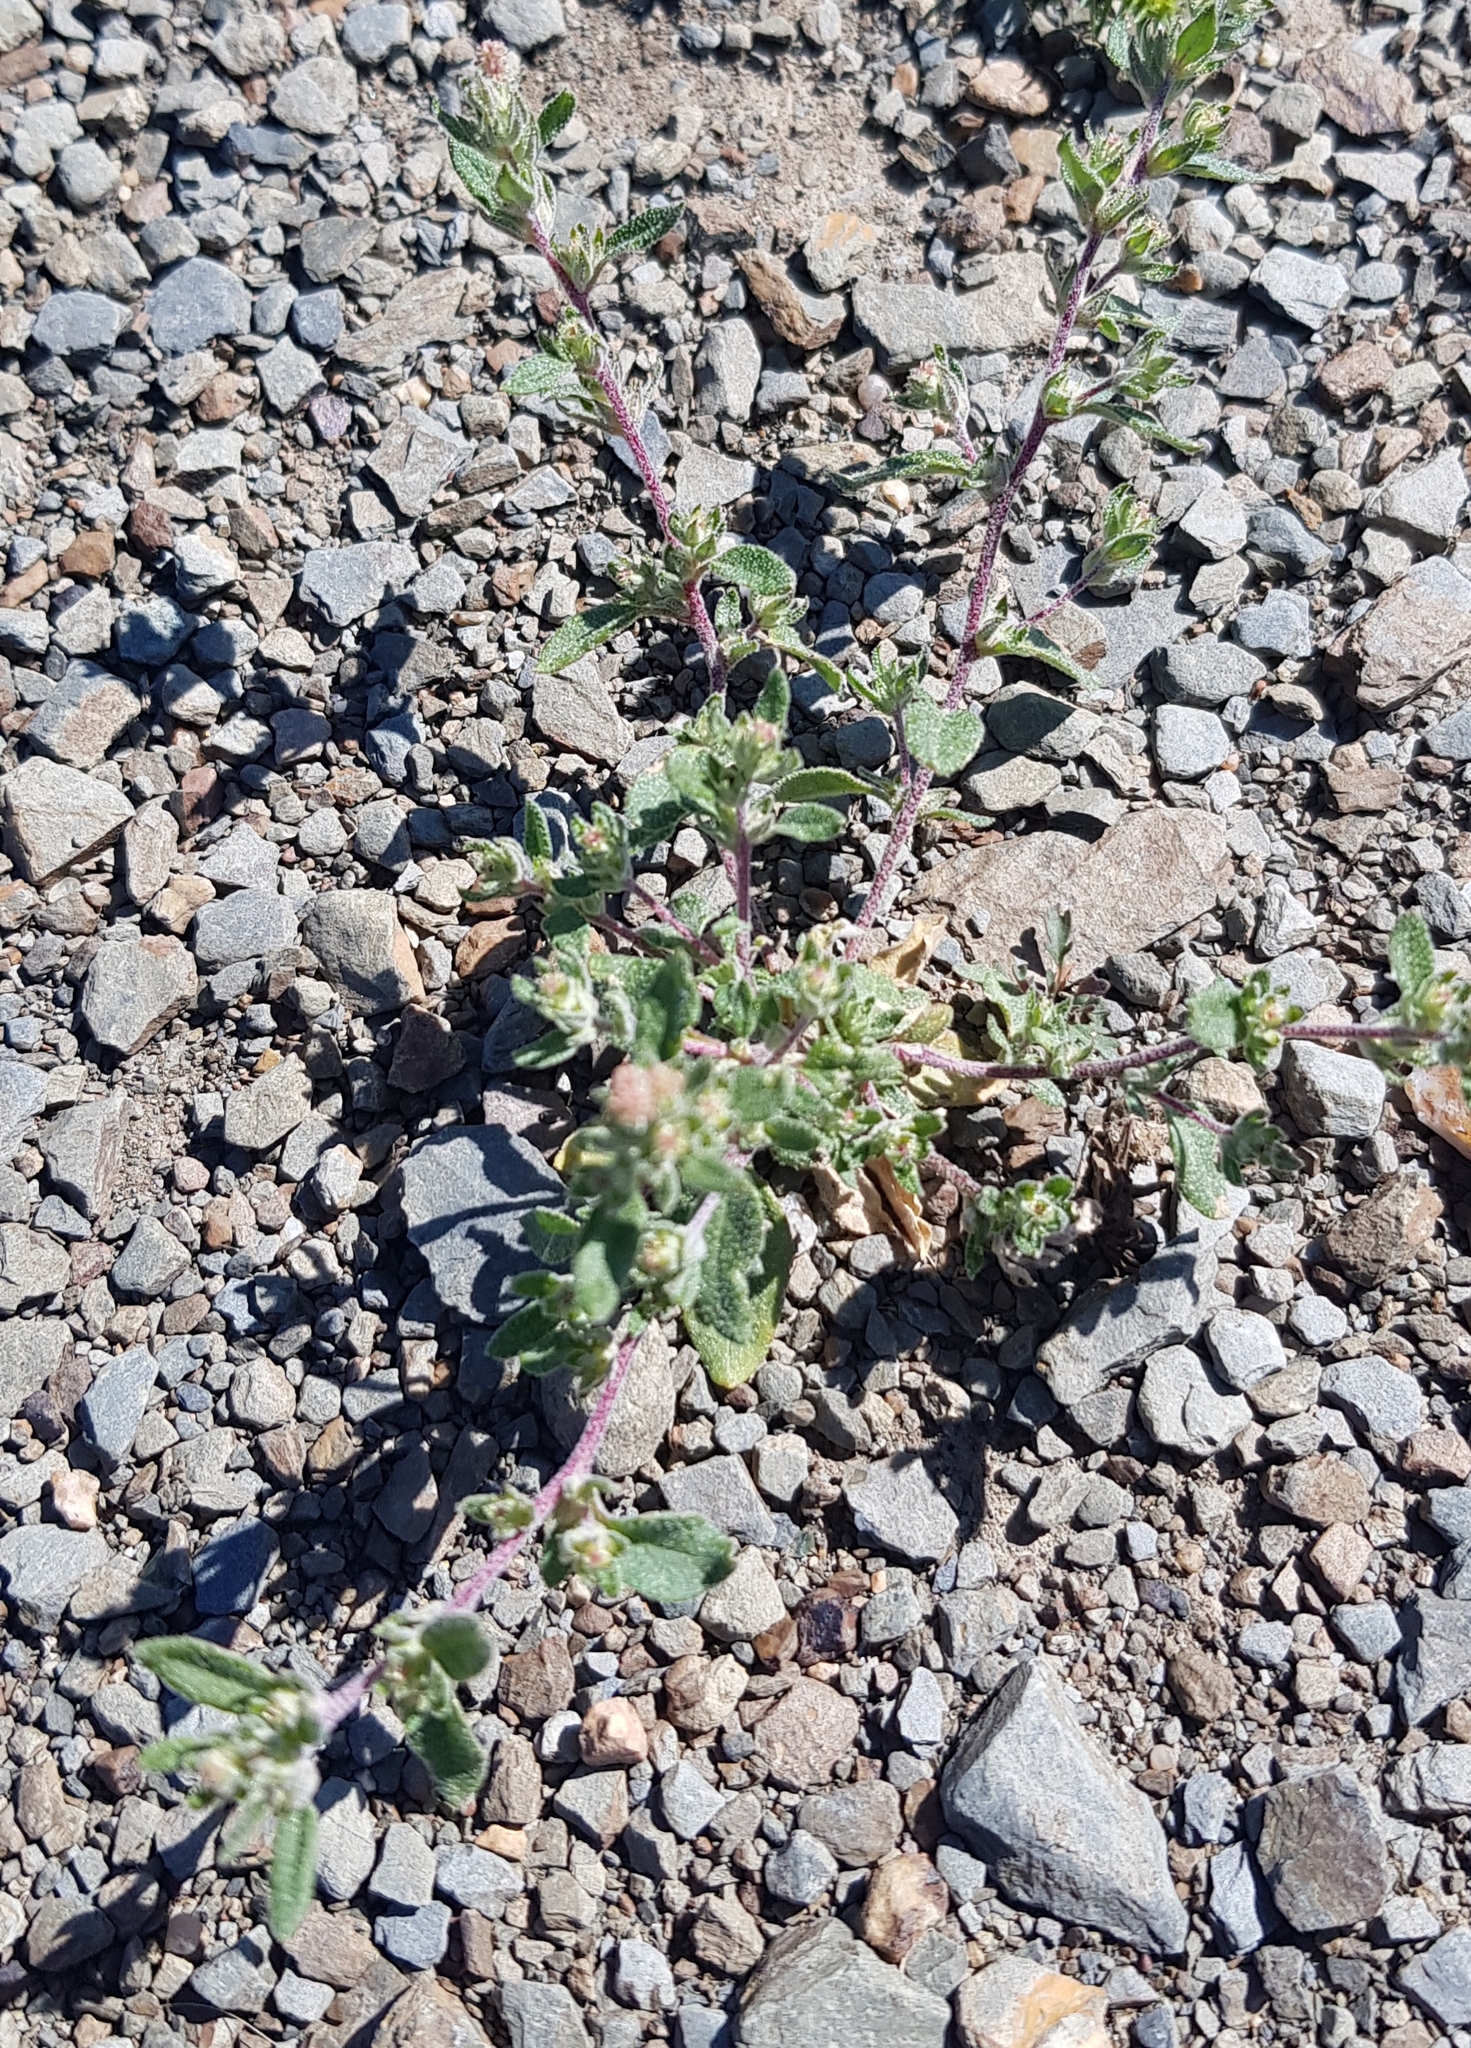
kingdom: Plantae
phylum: Tracheophyta
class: Magnoliopsida
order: Caryophyllales
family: Amaranthaceae
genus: Axyris
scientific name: Axyris hybrida
